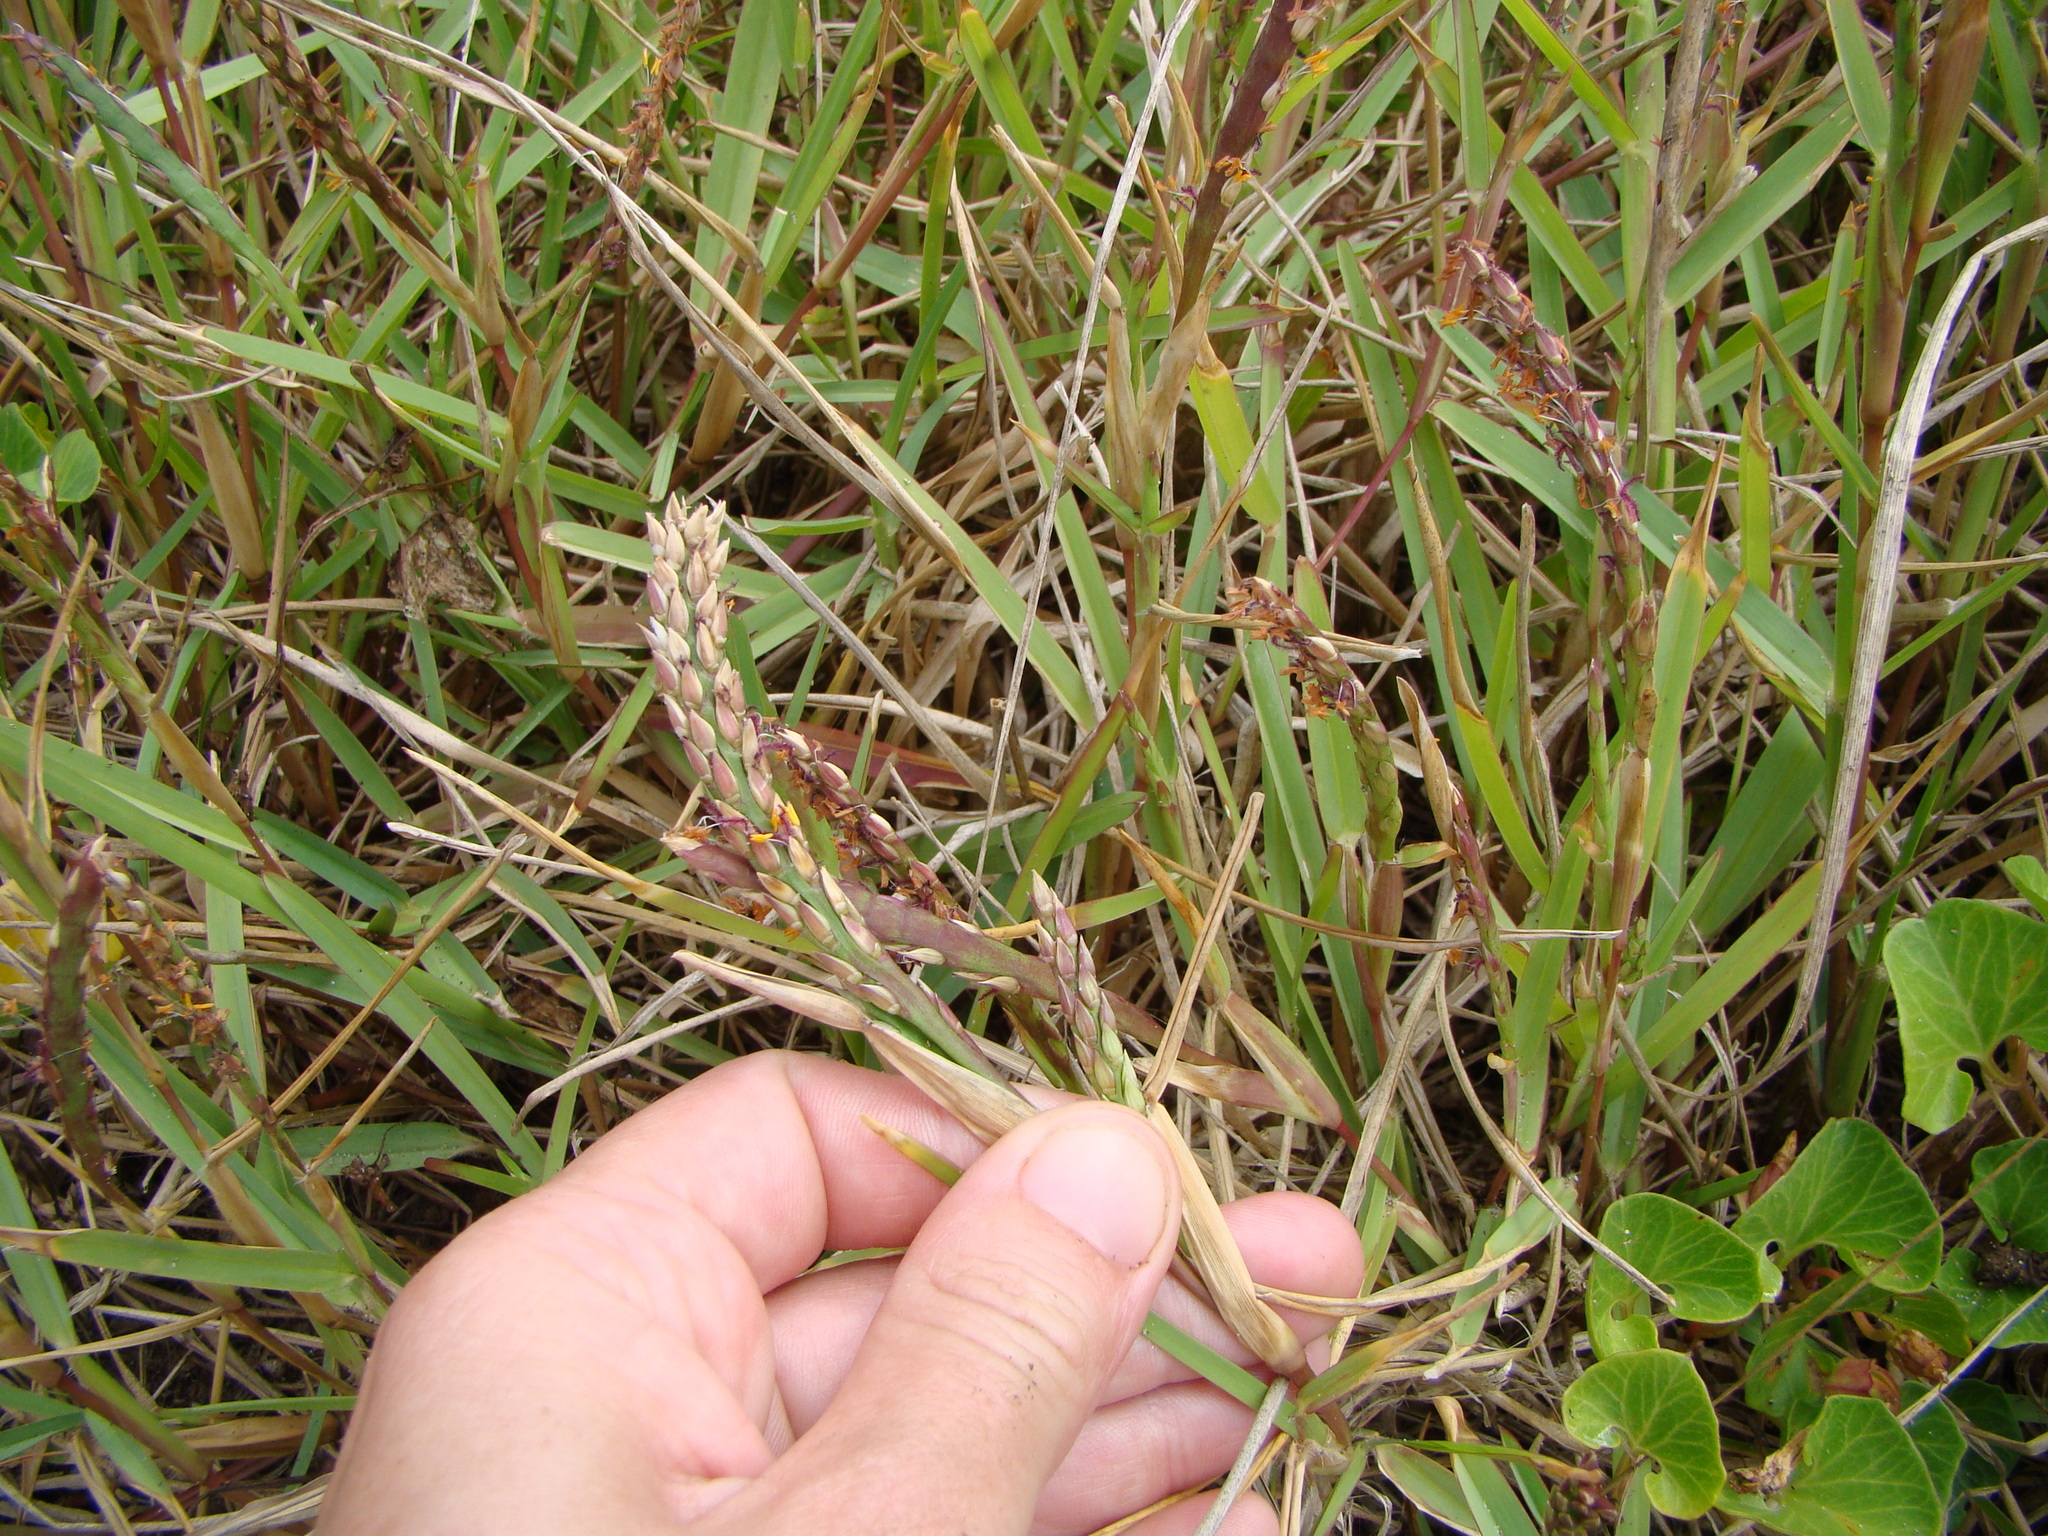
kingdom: Plantae
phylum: Tracheophyta
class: Liliopsida
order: Poales
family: Poaceae
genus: Stenotaphrum
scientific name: Stenotaphrum secundatum
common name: St. augustine grass
